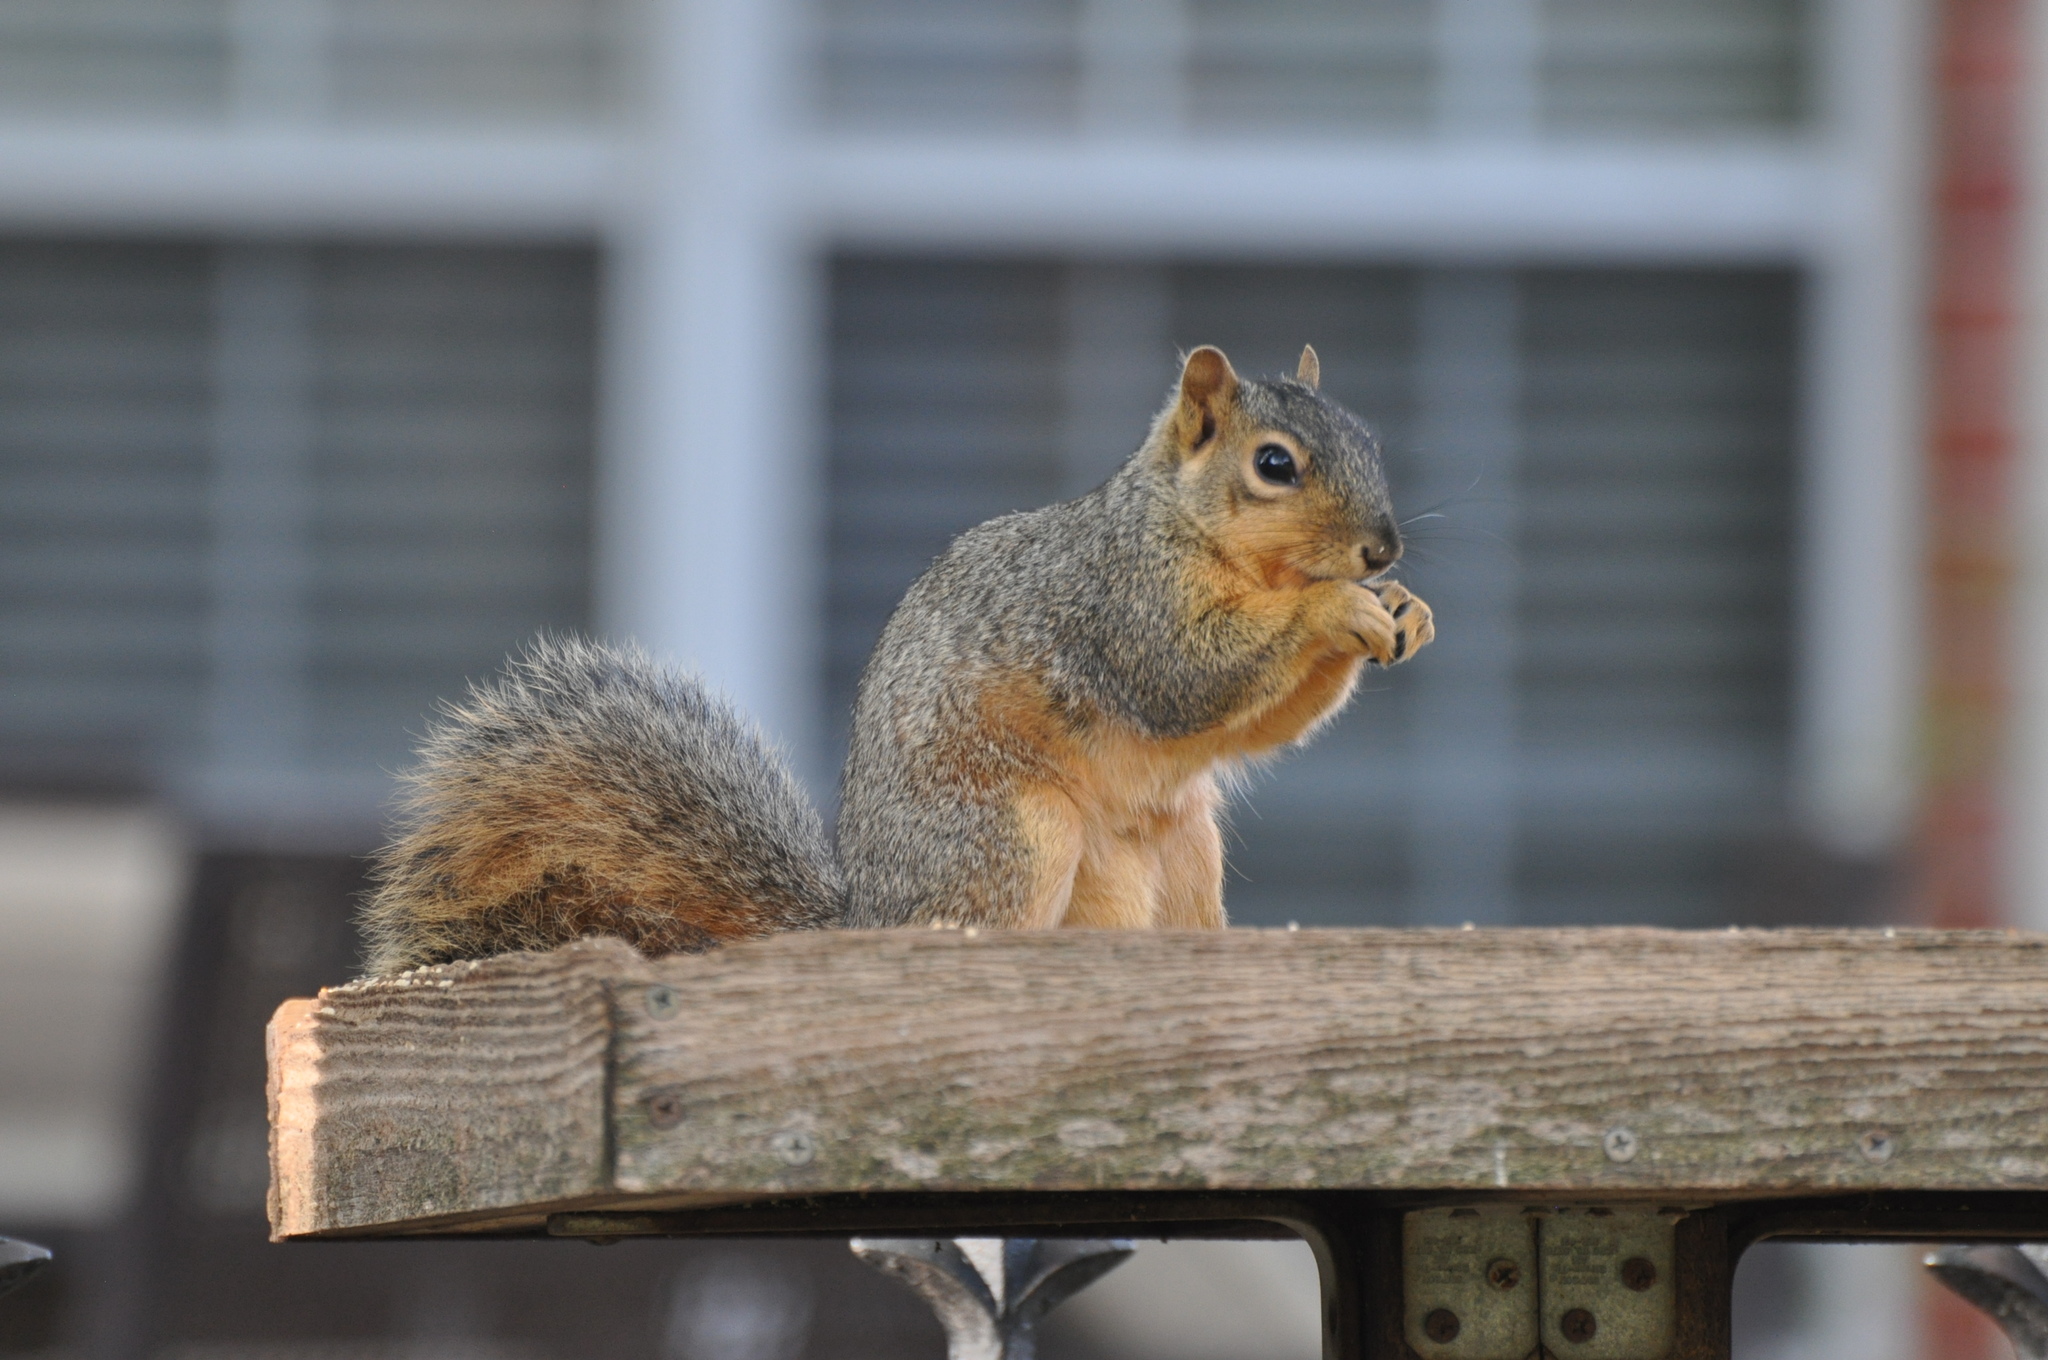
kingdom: Animalia
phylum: Chordata
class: Mammalia
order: Rodentia
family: Sciuridae
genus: Sciurus
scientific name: Sciurus niger
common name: Fox squirrel
